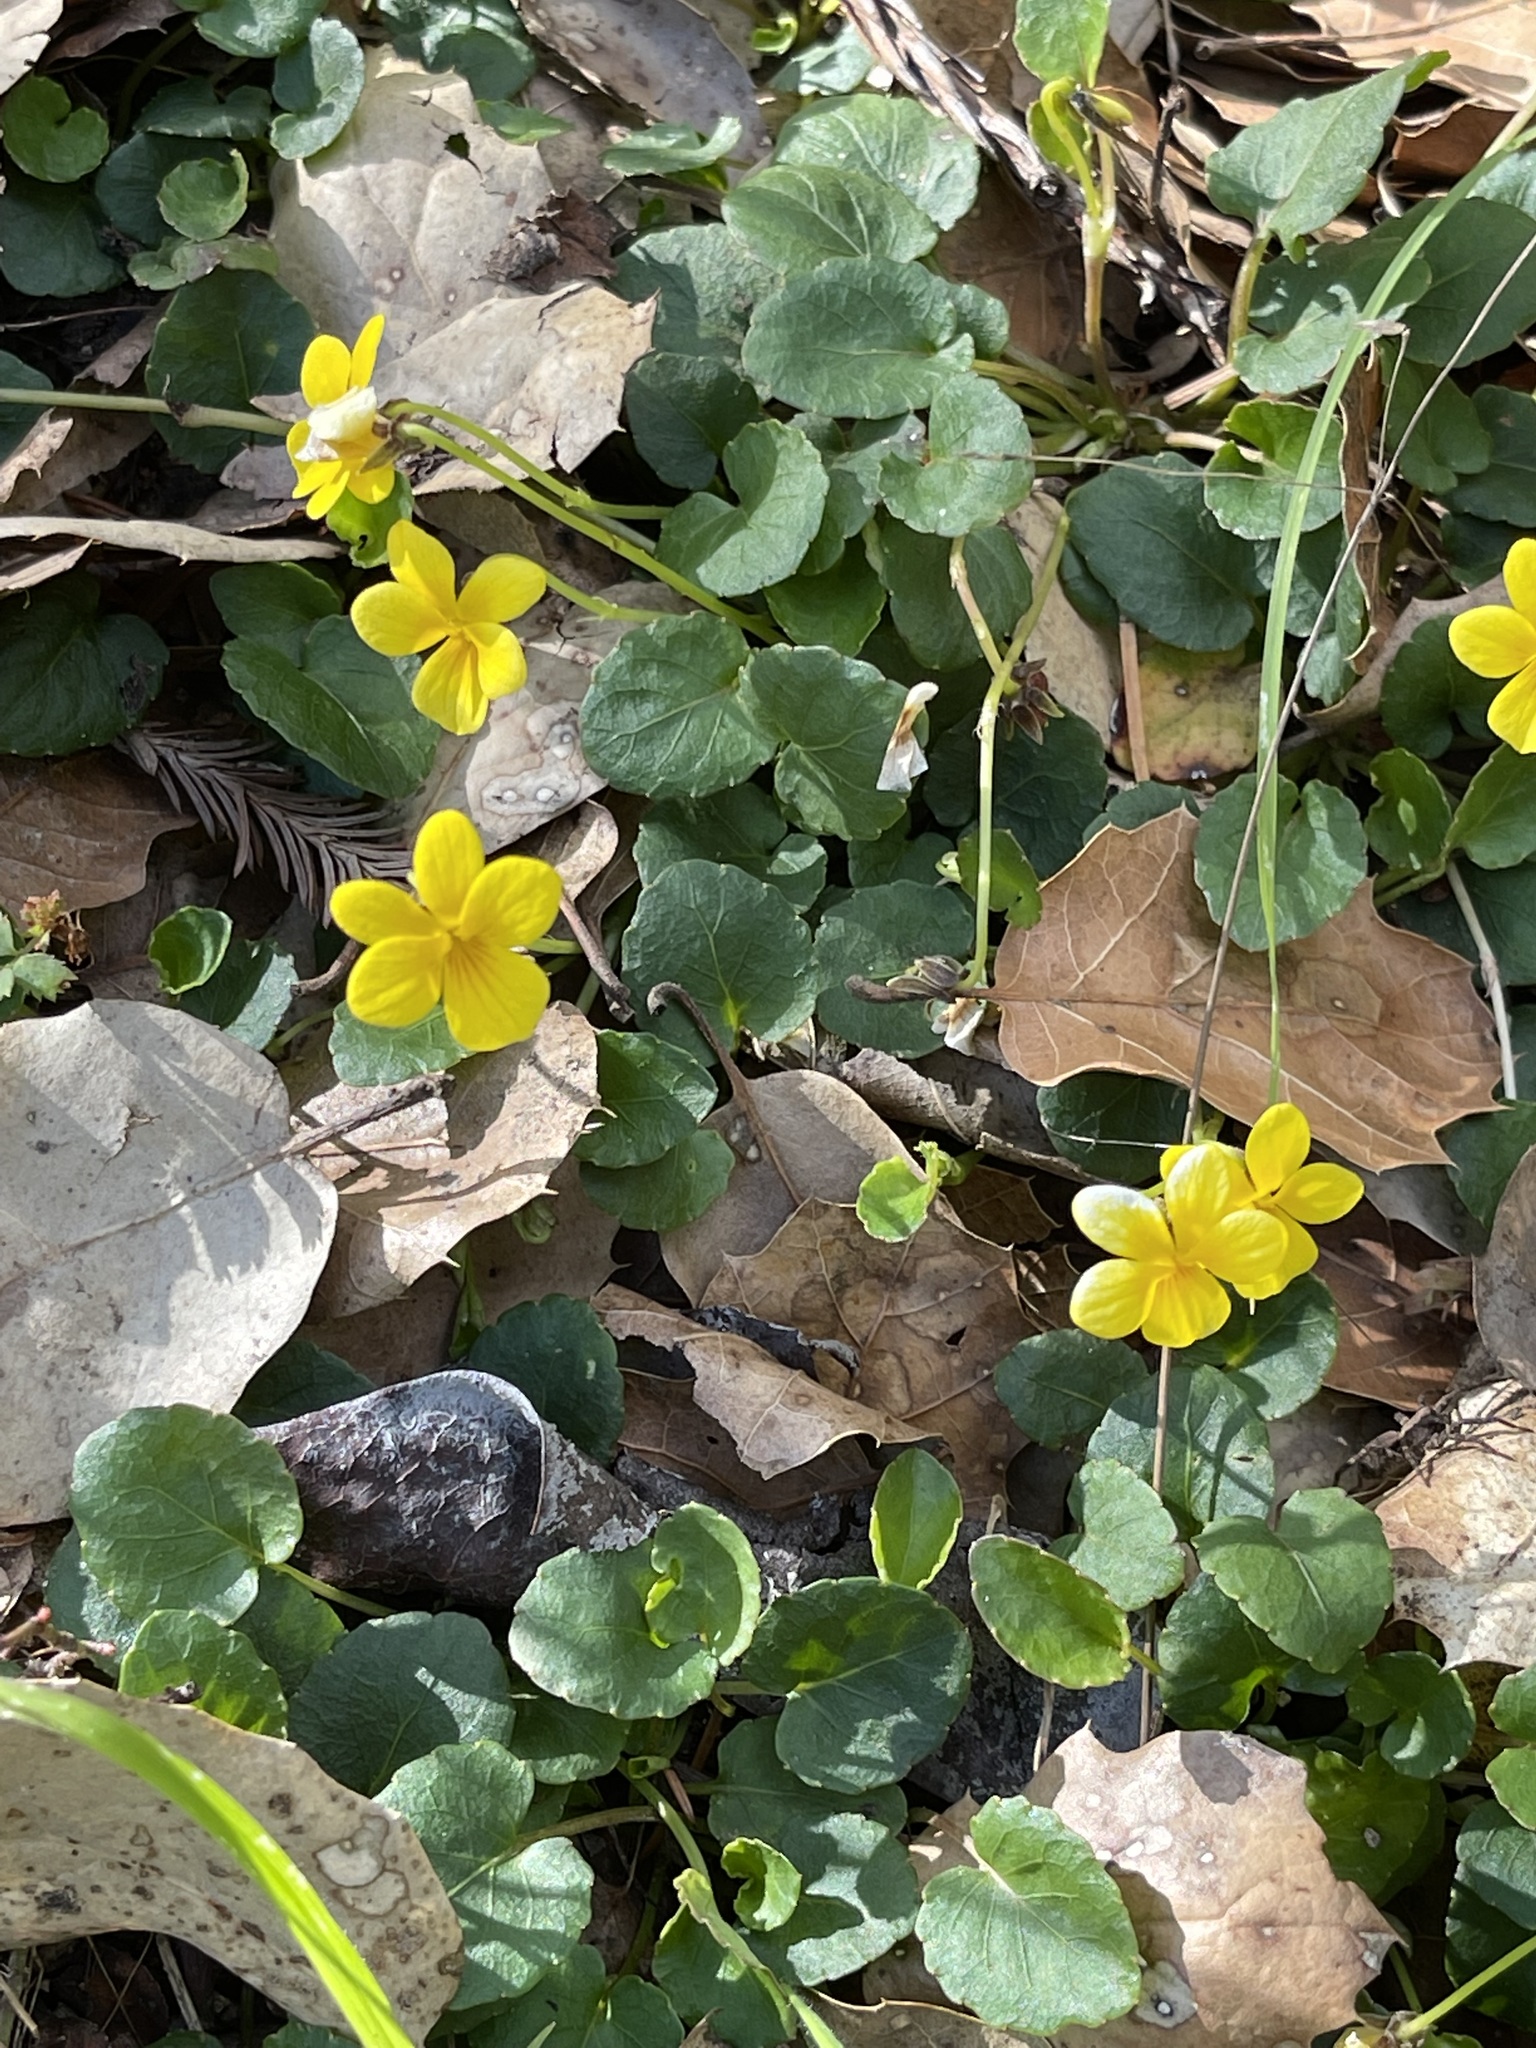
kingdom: Plantae
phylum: Tracheophyta
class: Magnoliopsida
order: Malpighiales
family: Violaceae
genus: Viola
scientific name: Viola sempervirens
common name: Evergreen violet
